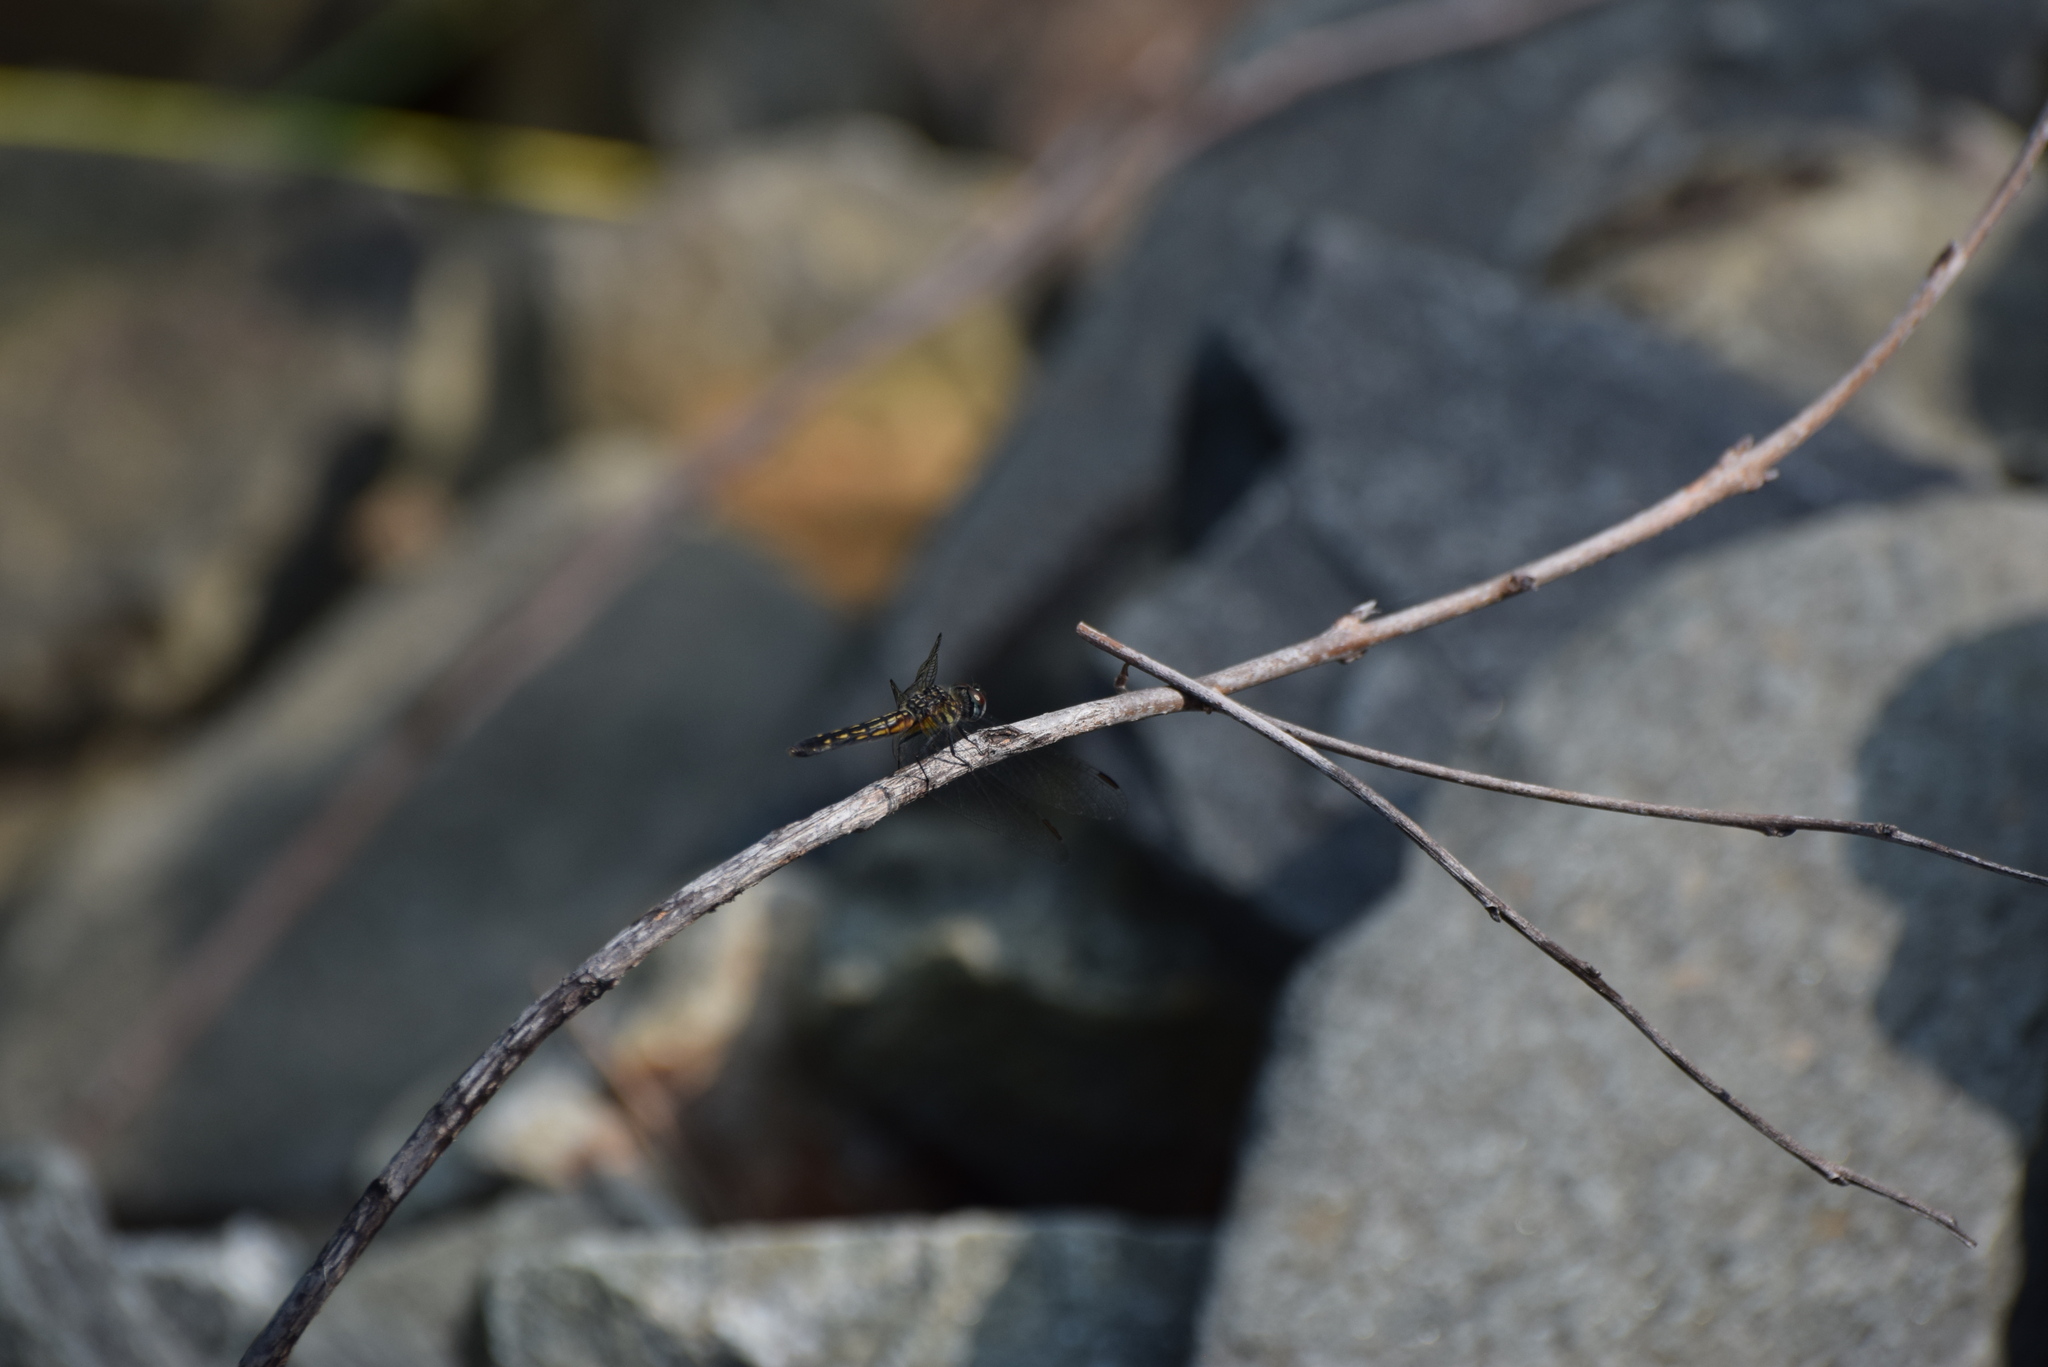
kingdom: Animalia
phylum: Arthropoda
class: Insecta
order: Odonata
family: Libellulidae
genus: Pachydiplax
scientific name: Pachydiplax longipennis
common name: Blue dasher
